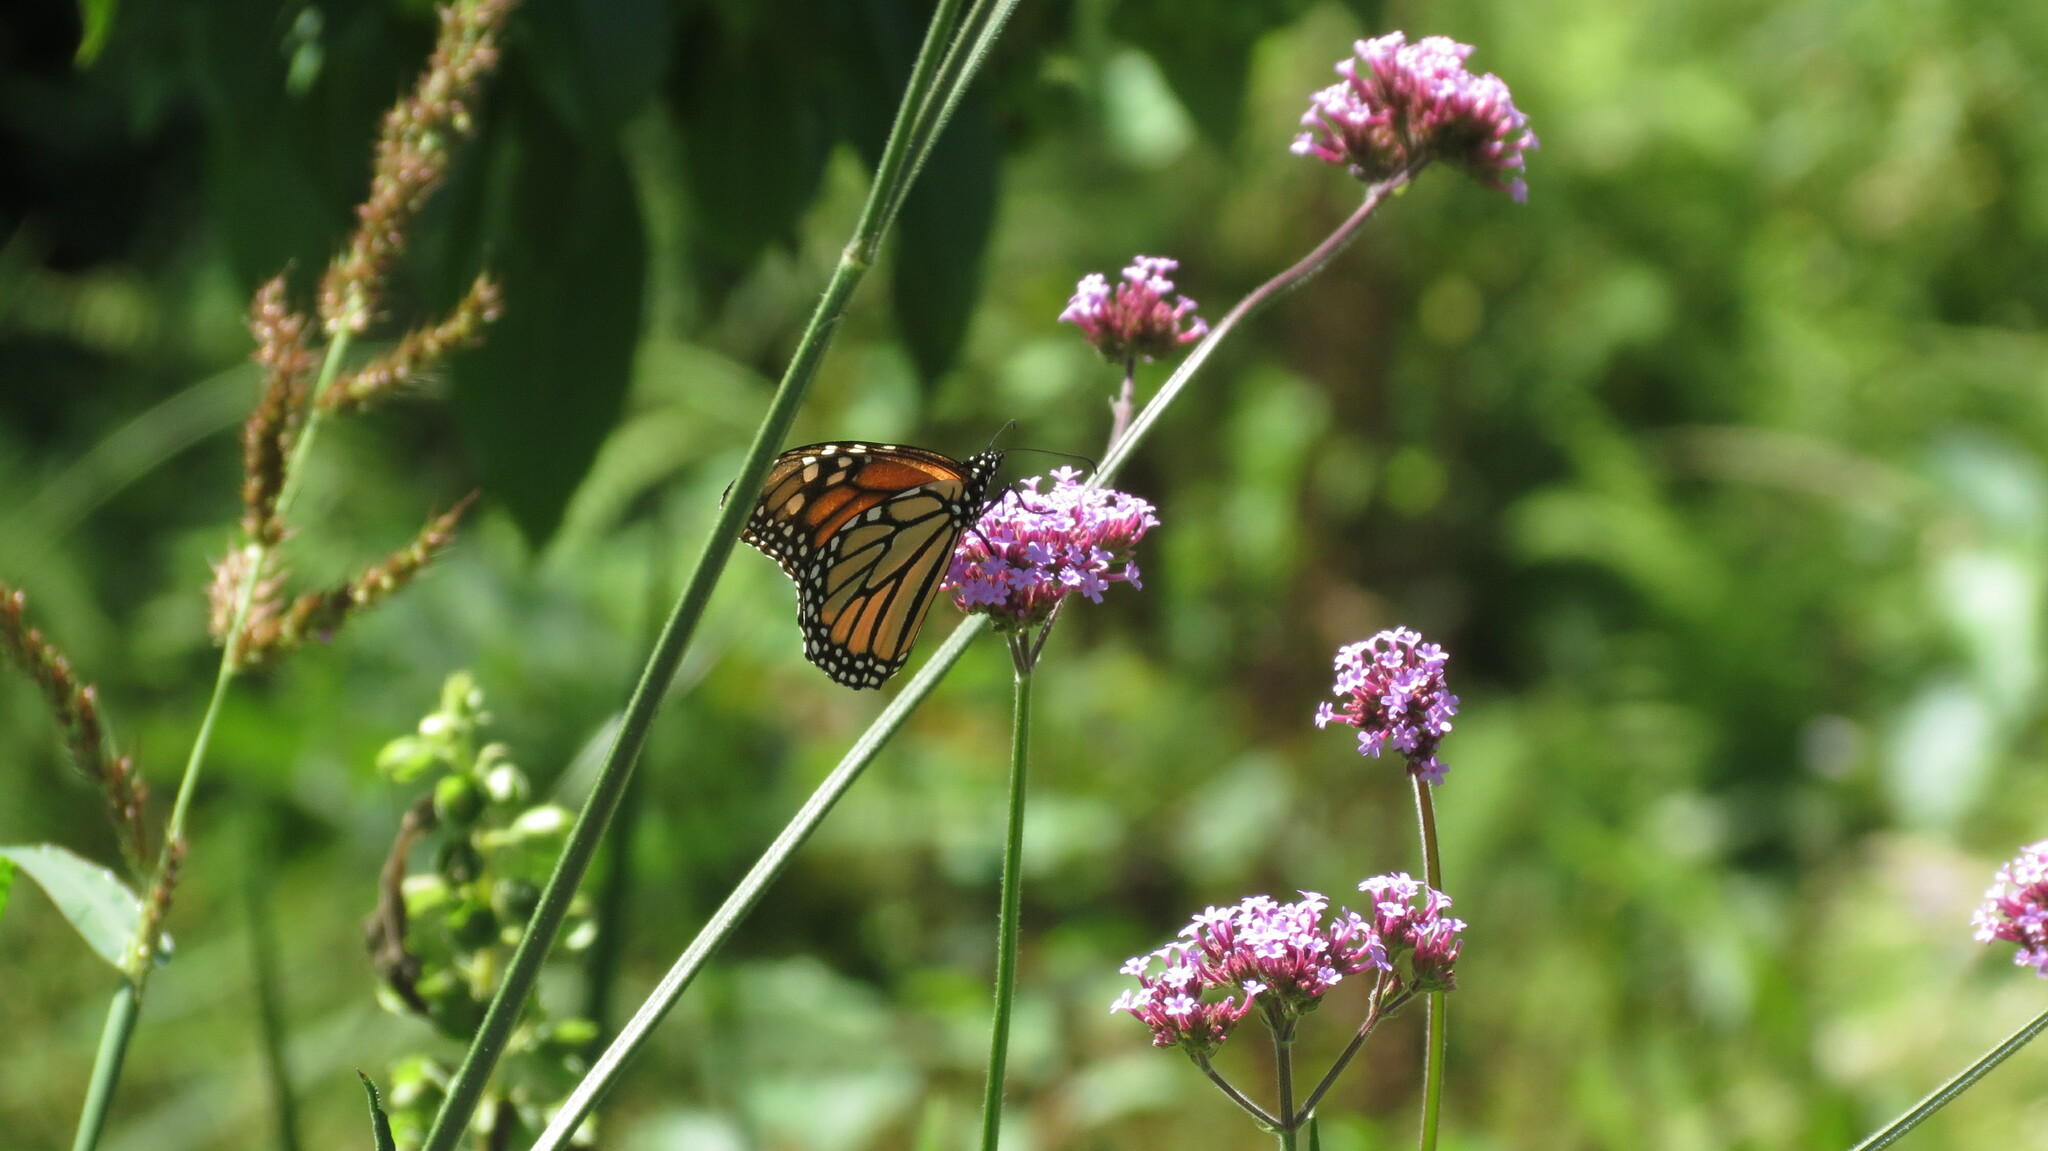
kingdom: Animalia
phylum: Arthropoda
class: Insecta
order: Lepidoptera
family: Nymphalidae
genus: Danaus
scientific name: Danaus plexippus
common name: Monarch
